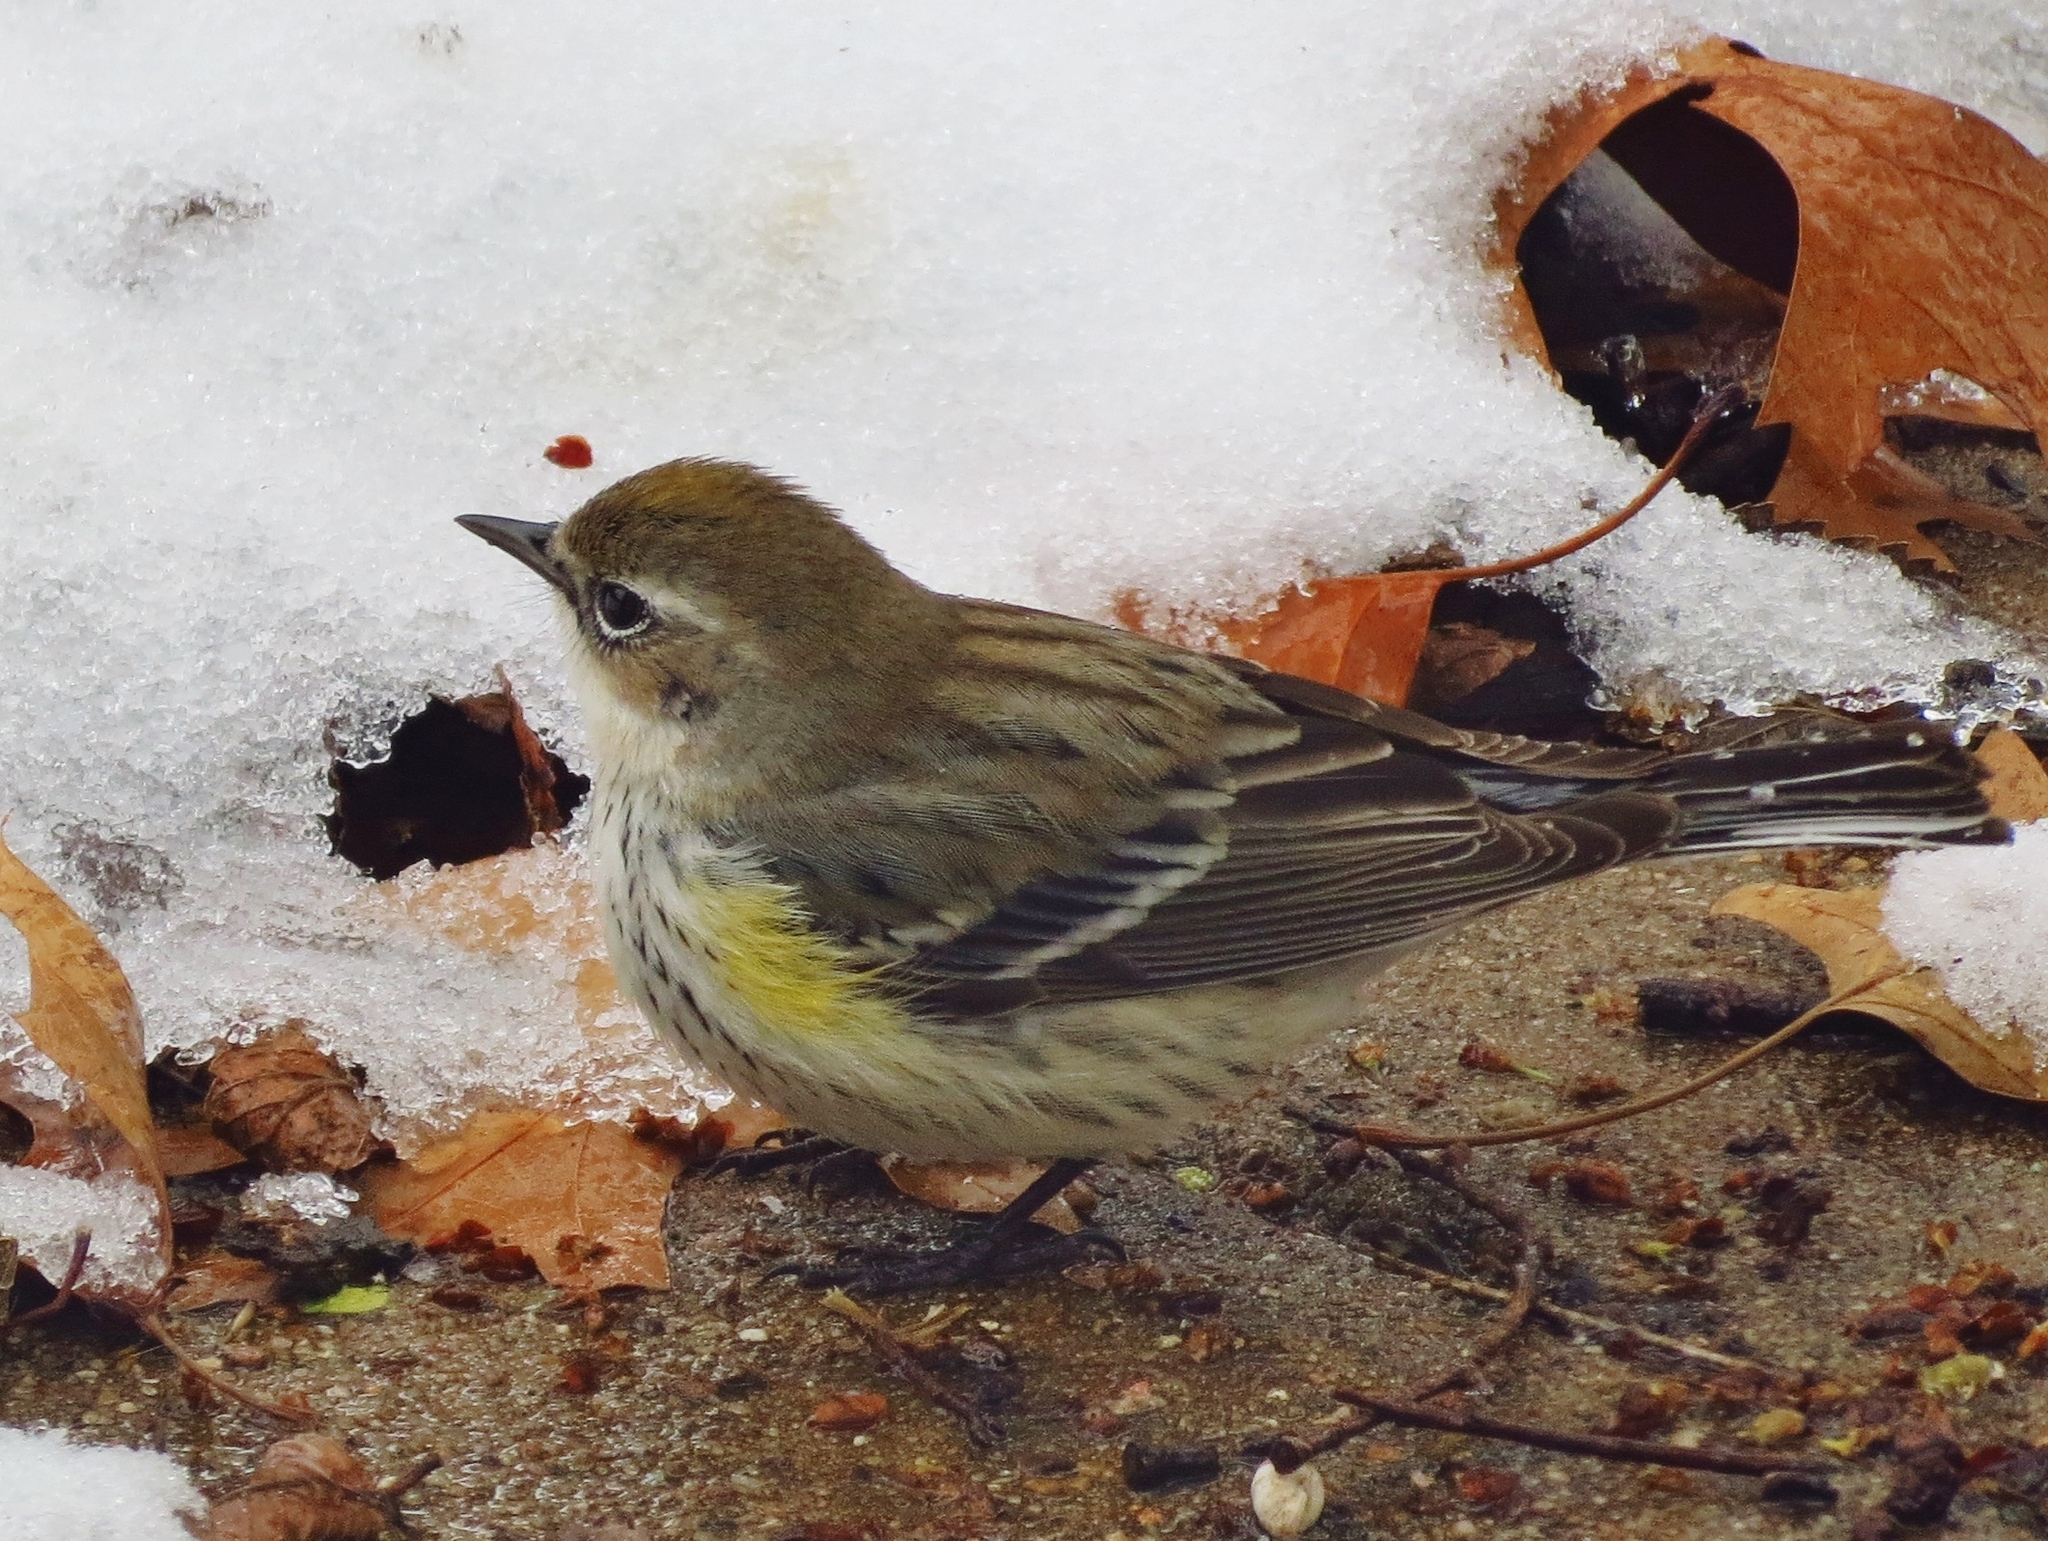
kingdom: Animalia
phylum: Chordata
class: Aves
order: Passeriformes
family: Parulidae
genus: Setophaga
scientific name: Setophaga coronata
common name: Myrtle warbler
